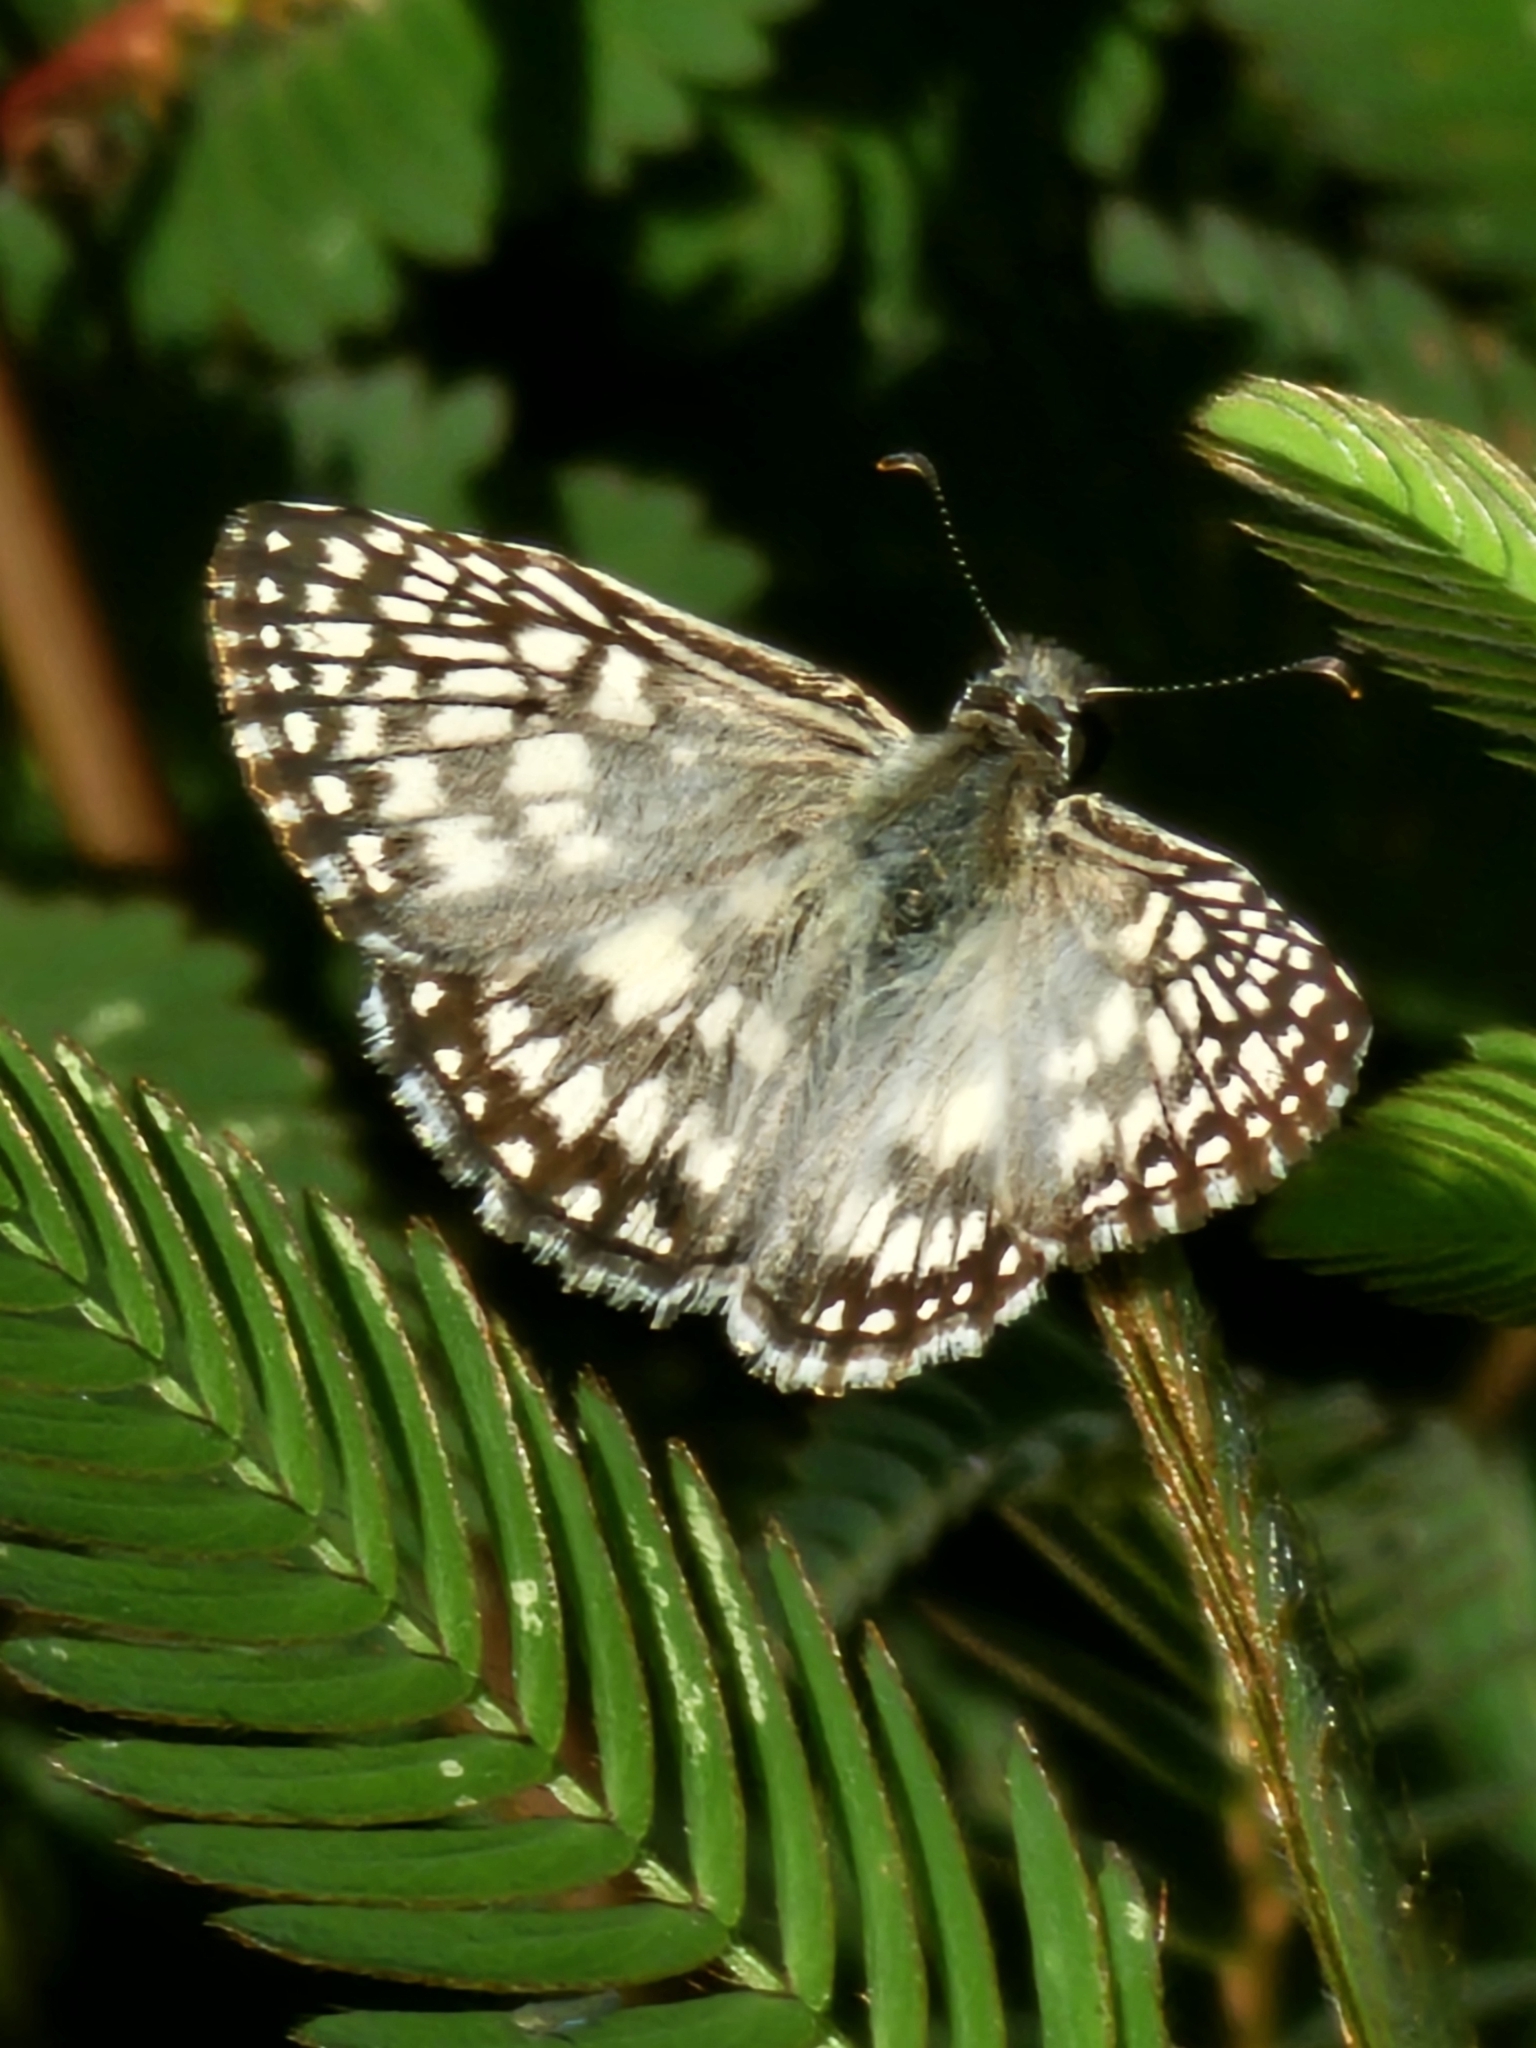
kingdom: Animalia
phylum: Arthropoda
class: Insecta
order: Lepidoptera
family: Hesperiidae
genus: Pyrgus
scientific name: Pyrgus oileus
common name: Tropical checkered-skipper
